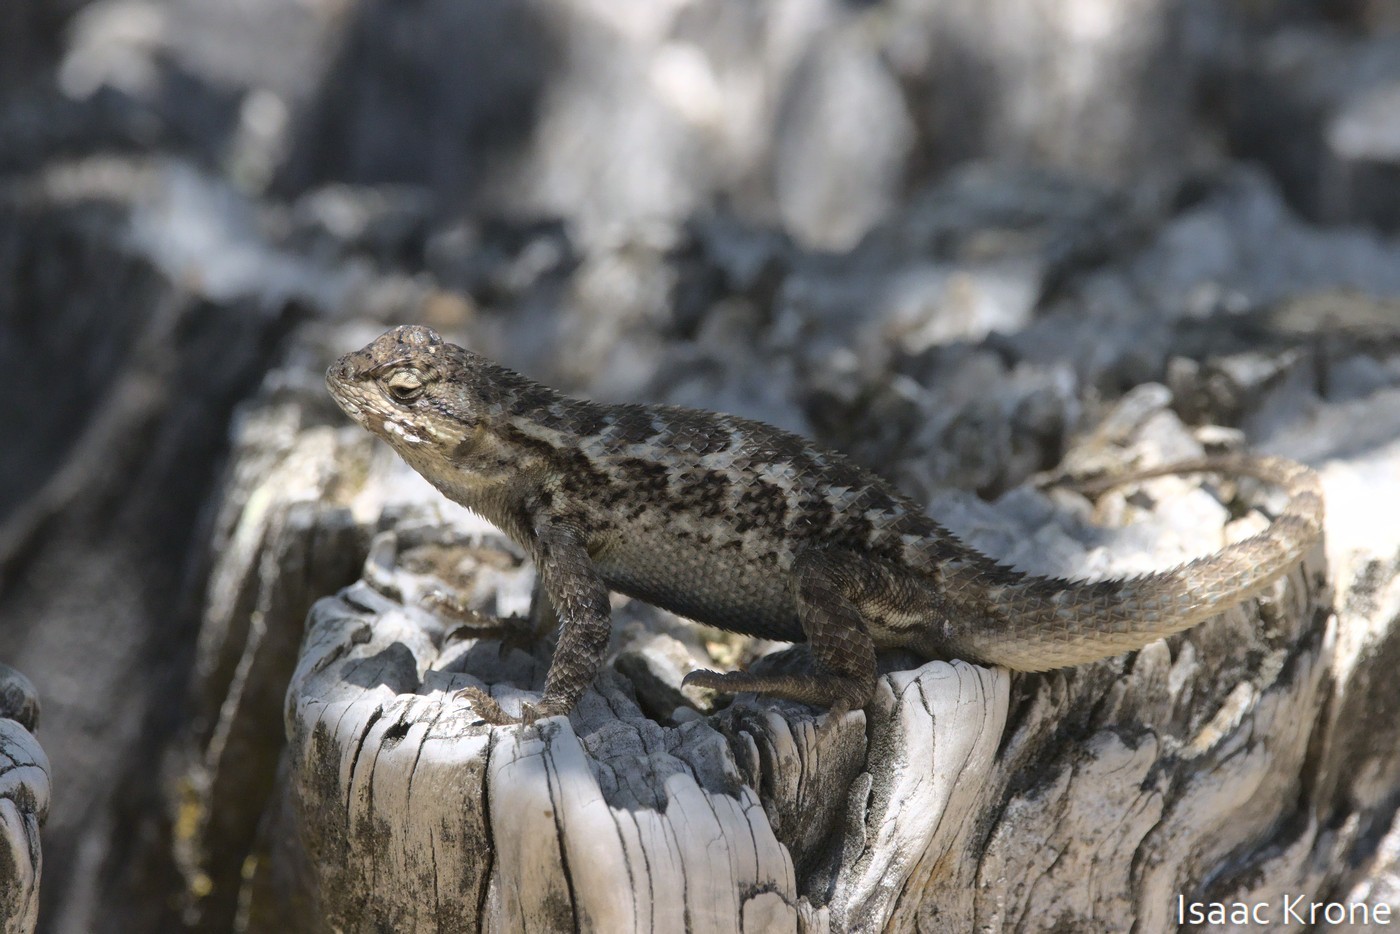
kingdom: Animalia
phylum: Chordata
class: Squamata
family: Phrynosomatidae
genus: Sceloporus
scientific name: Sceloporus occidentalis
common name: Western fence lizard
